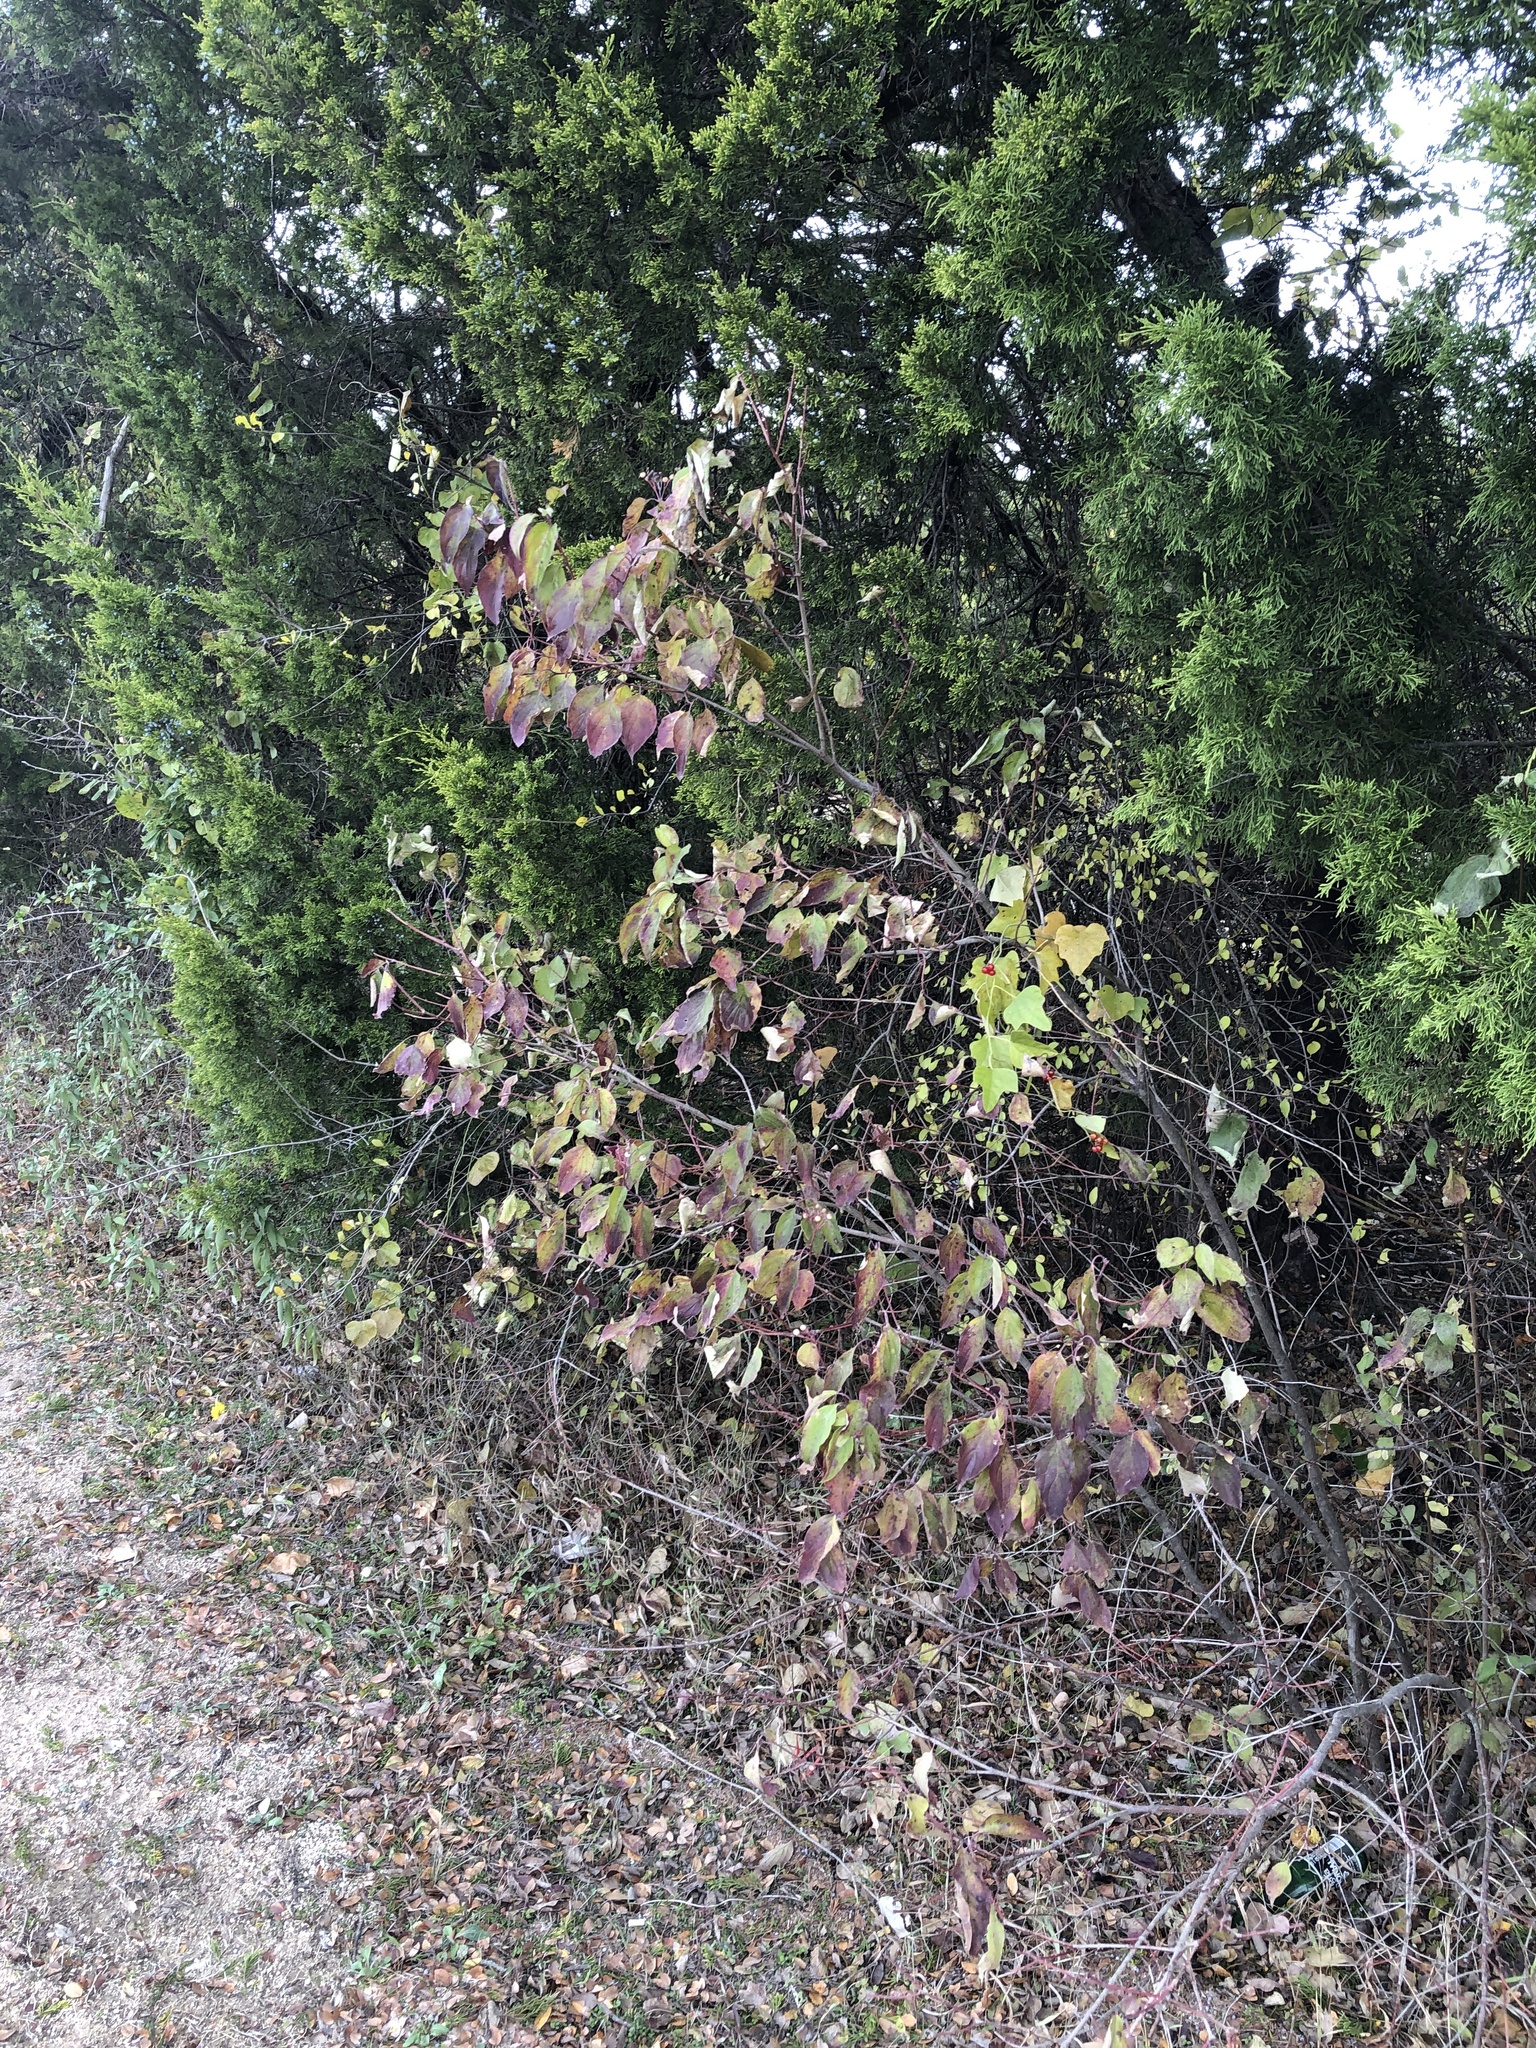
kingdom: Plantae
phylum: Tracheophyta
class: Magnoliopsida
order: Cornales
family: Cornaceae
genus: Cornus
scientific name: Cornus drummondii
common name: Rough-leaf dogwood
